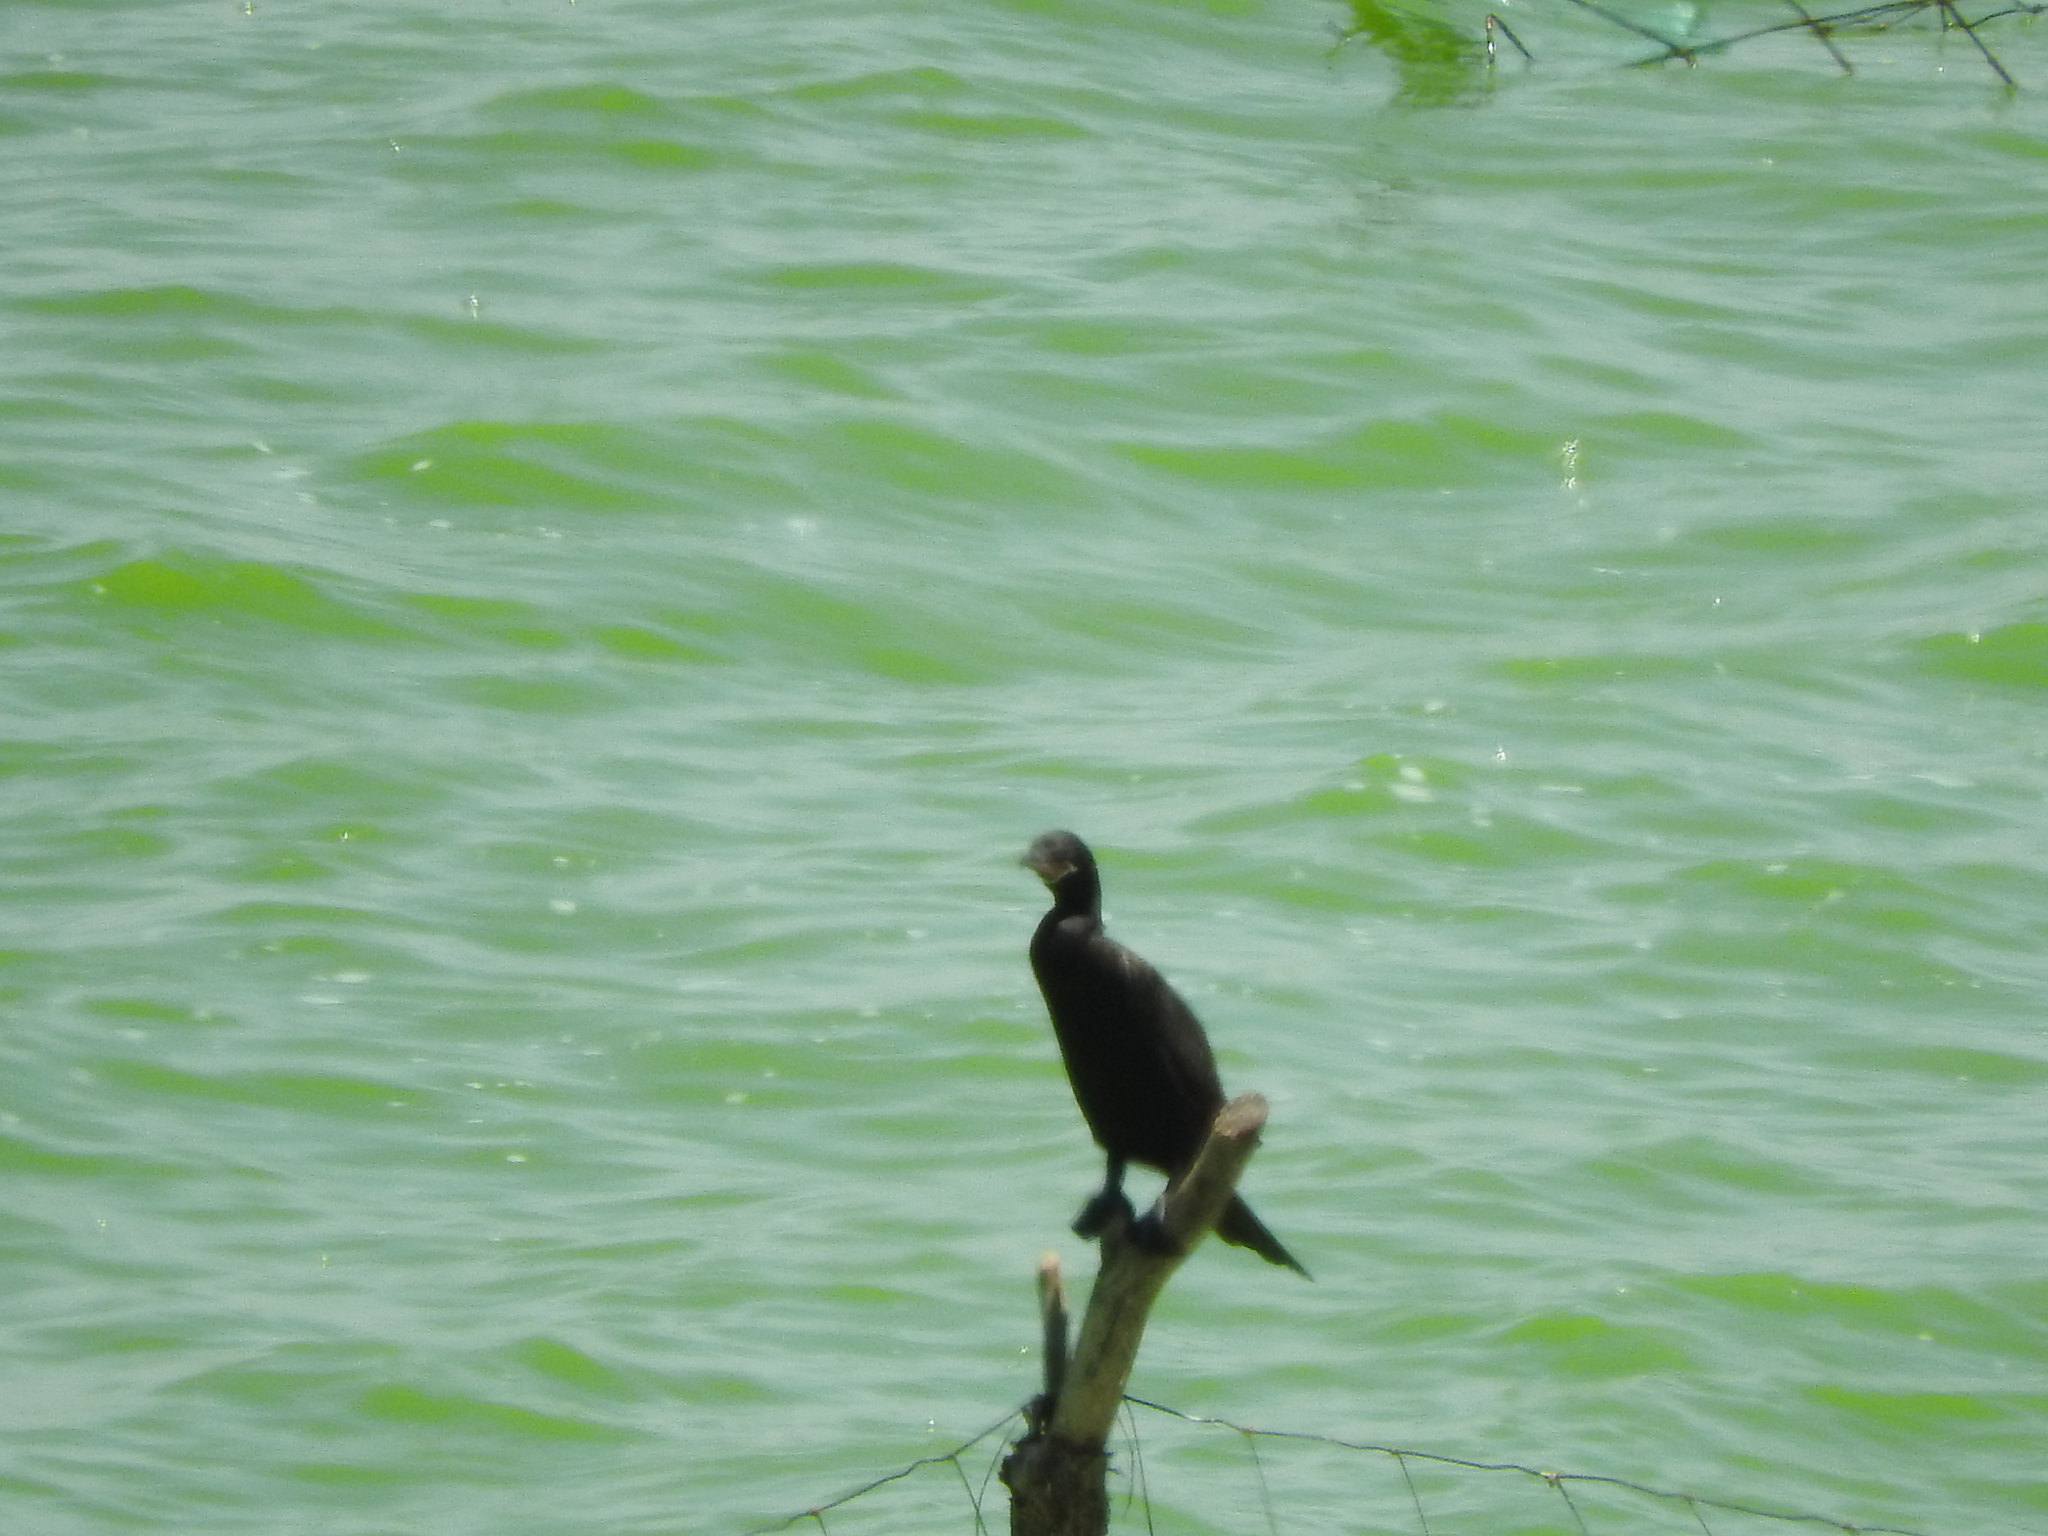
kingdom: Animalia
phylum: Chordata
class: Aves
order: Suliformes
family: Phalacrocoracidae
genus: Phalacrocorax
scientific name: Phalacrocorax brasilianus
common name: Neotropic cormorant
